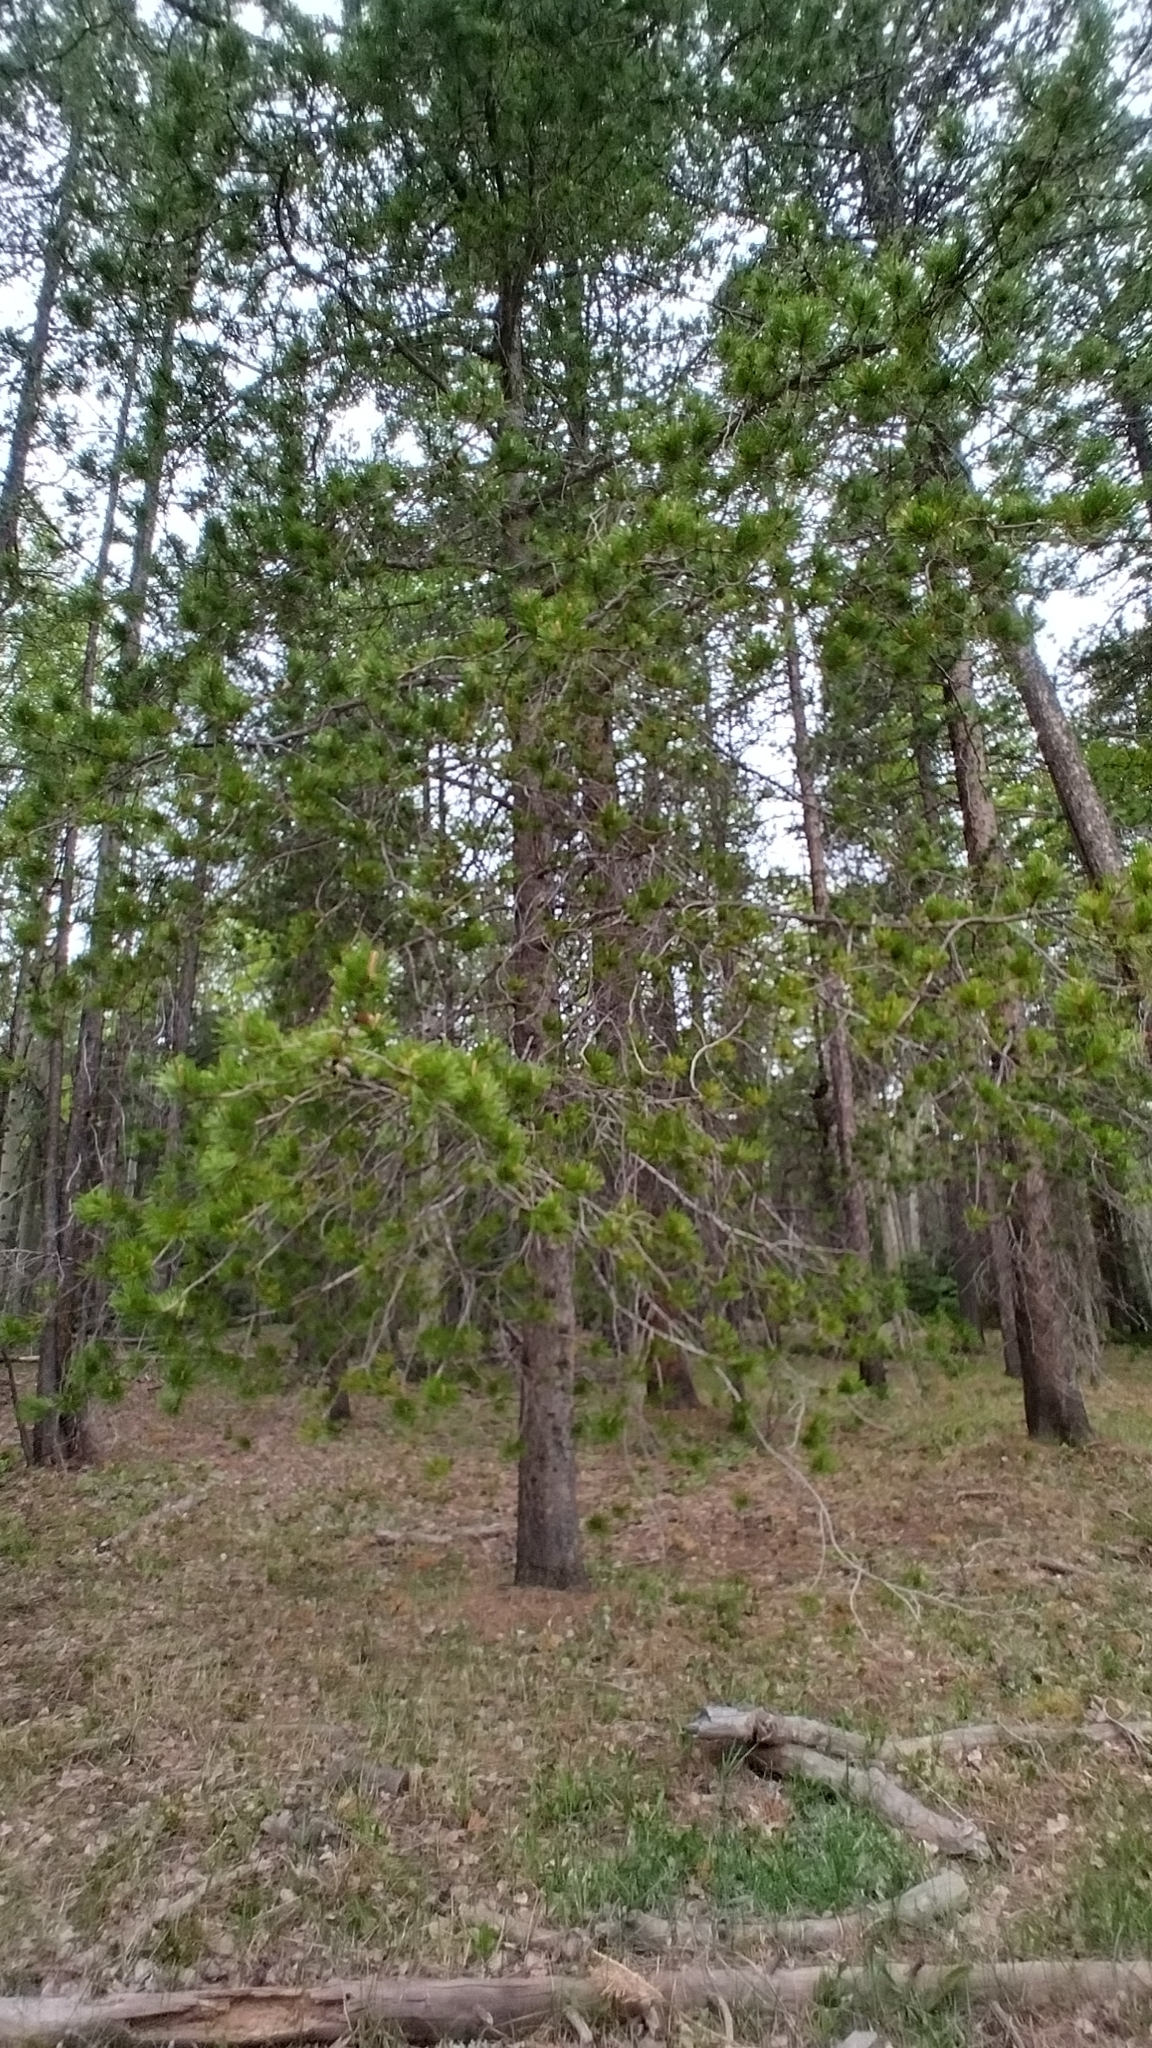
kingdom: Plantae
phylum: Tracheophyta
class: Pinopsida
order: Pinales
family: Pinaceae
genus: Pinus
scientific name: Pinus contorta
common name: Lodgepole pine
